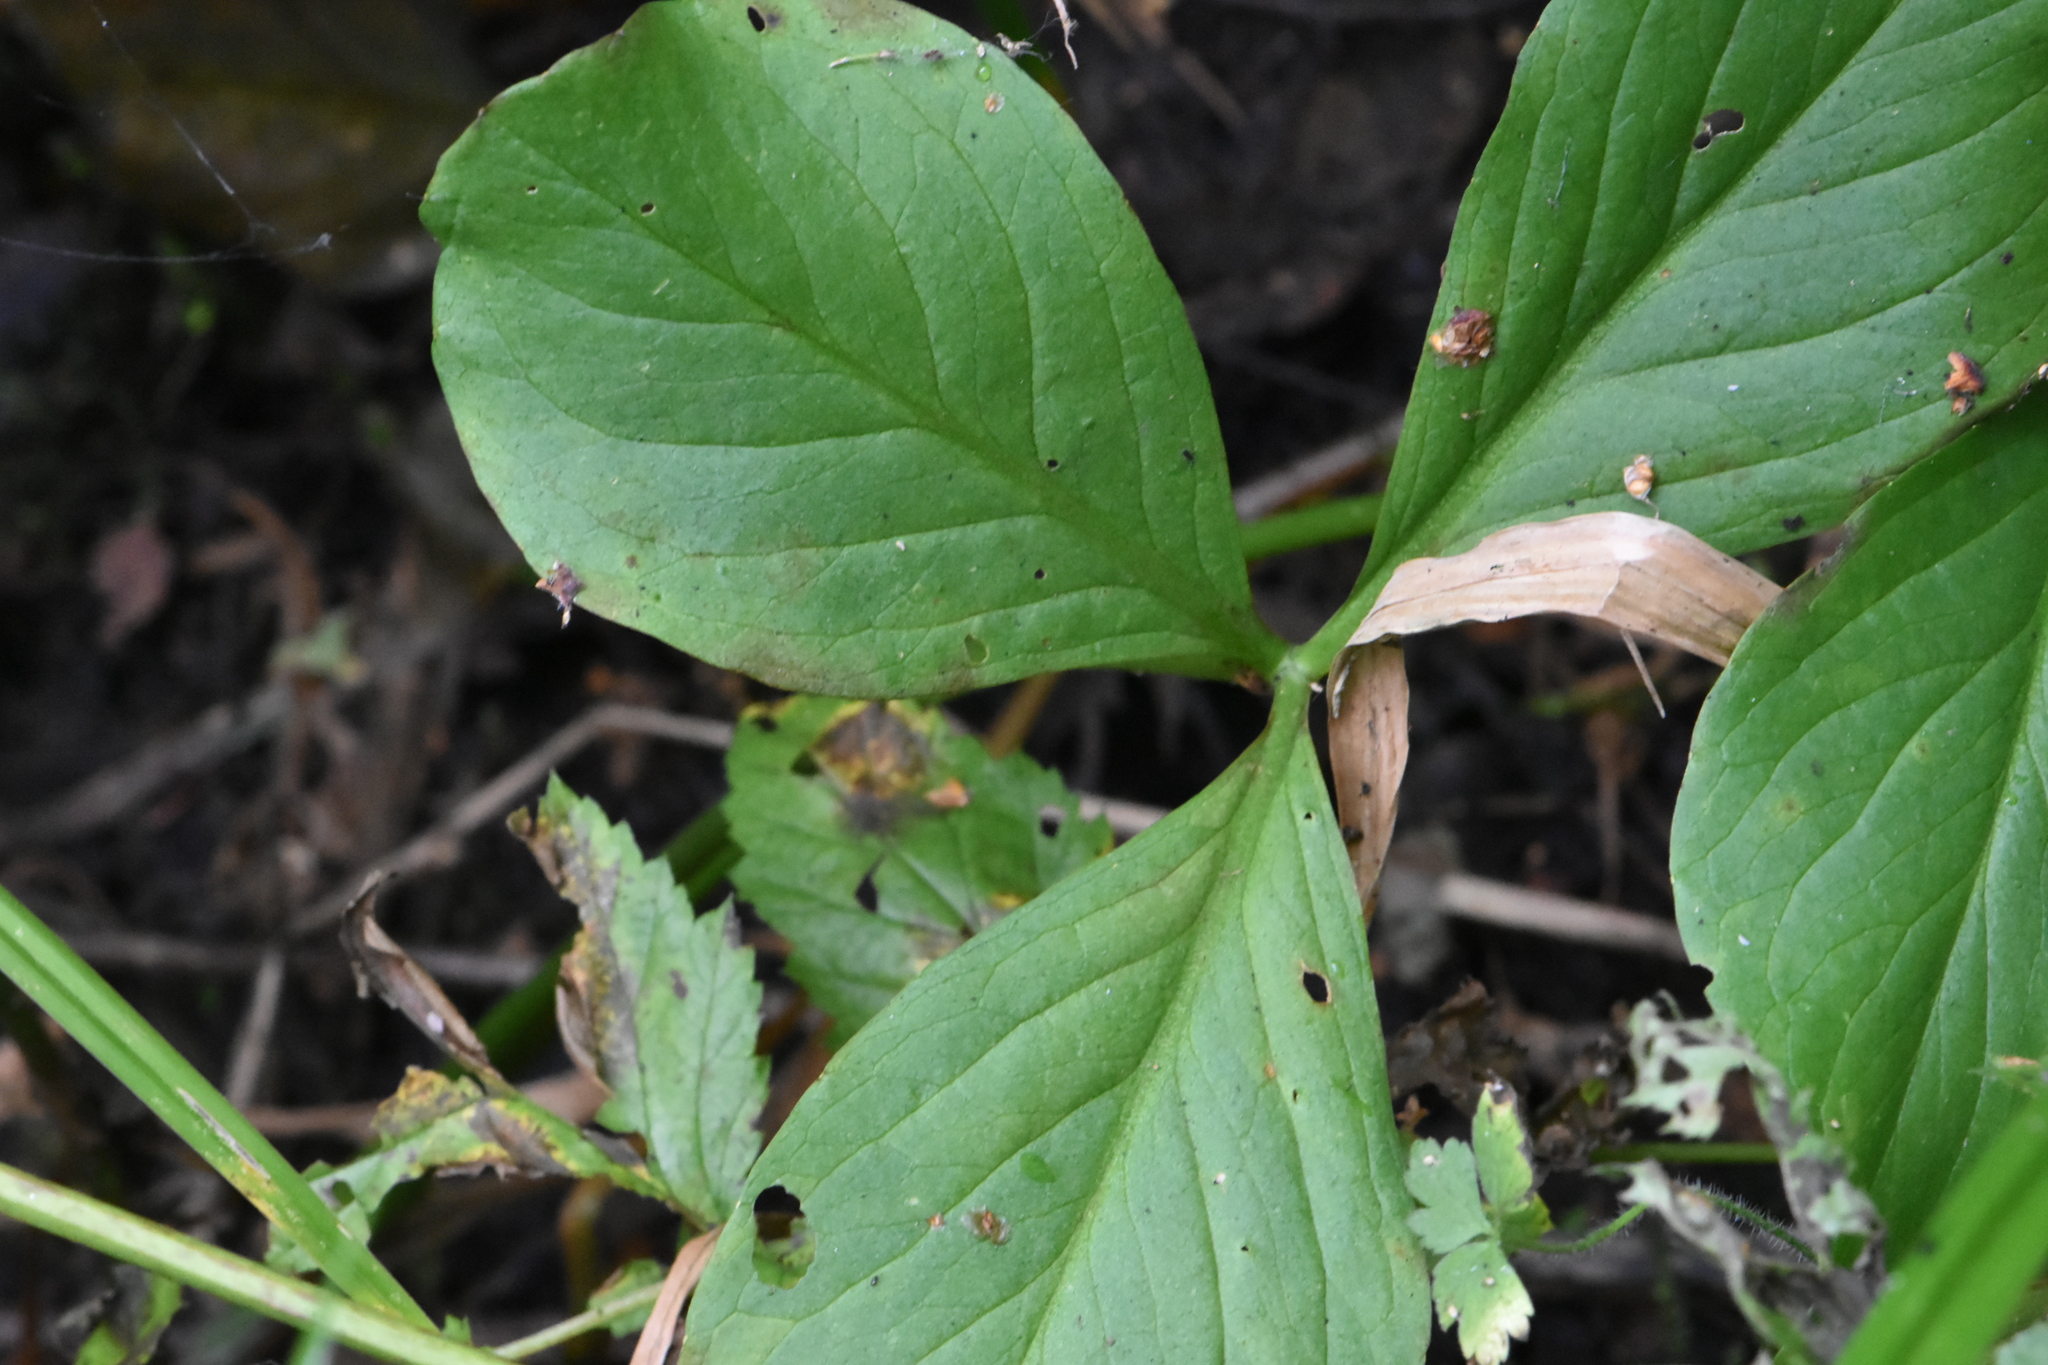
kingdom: Plantae
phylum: Tracheophyta
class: Magnoliopsida
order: Asterales
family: Menyanthaceae
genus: Menyanthes
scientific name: Menyanthes trifoliata
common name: Bogbean
